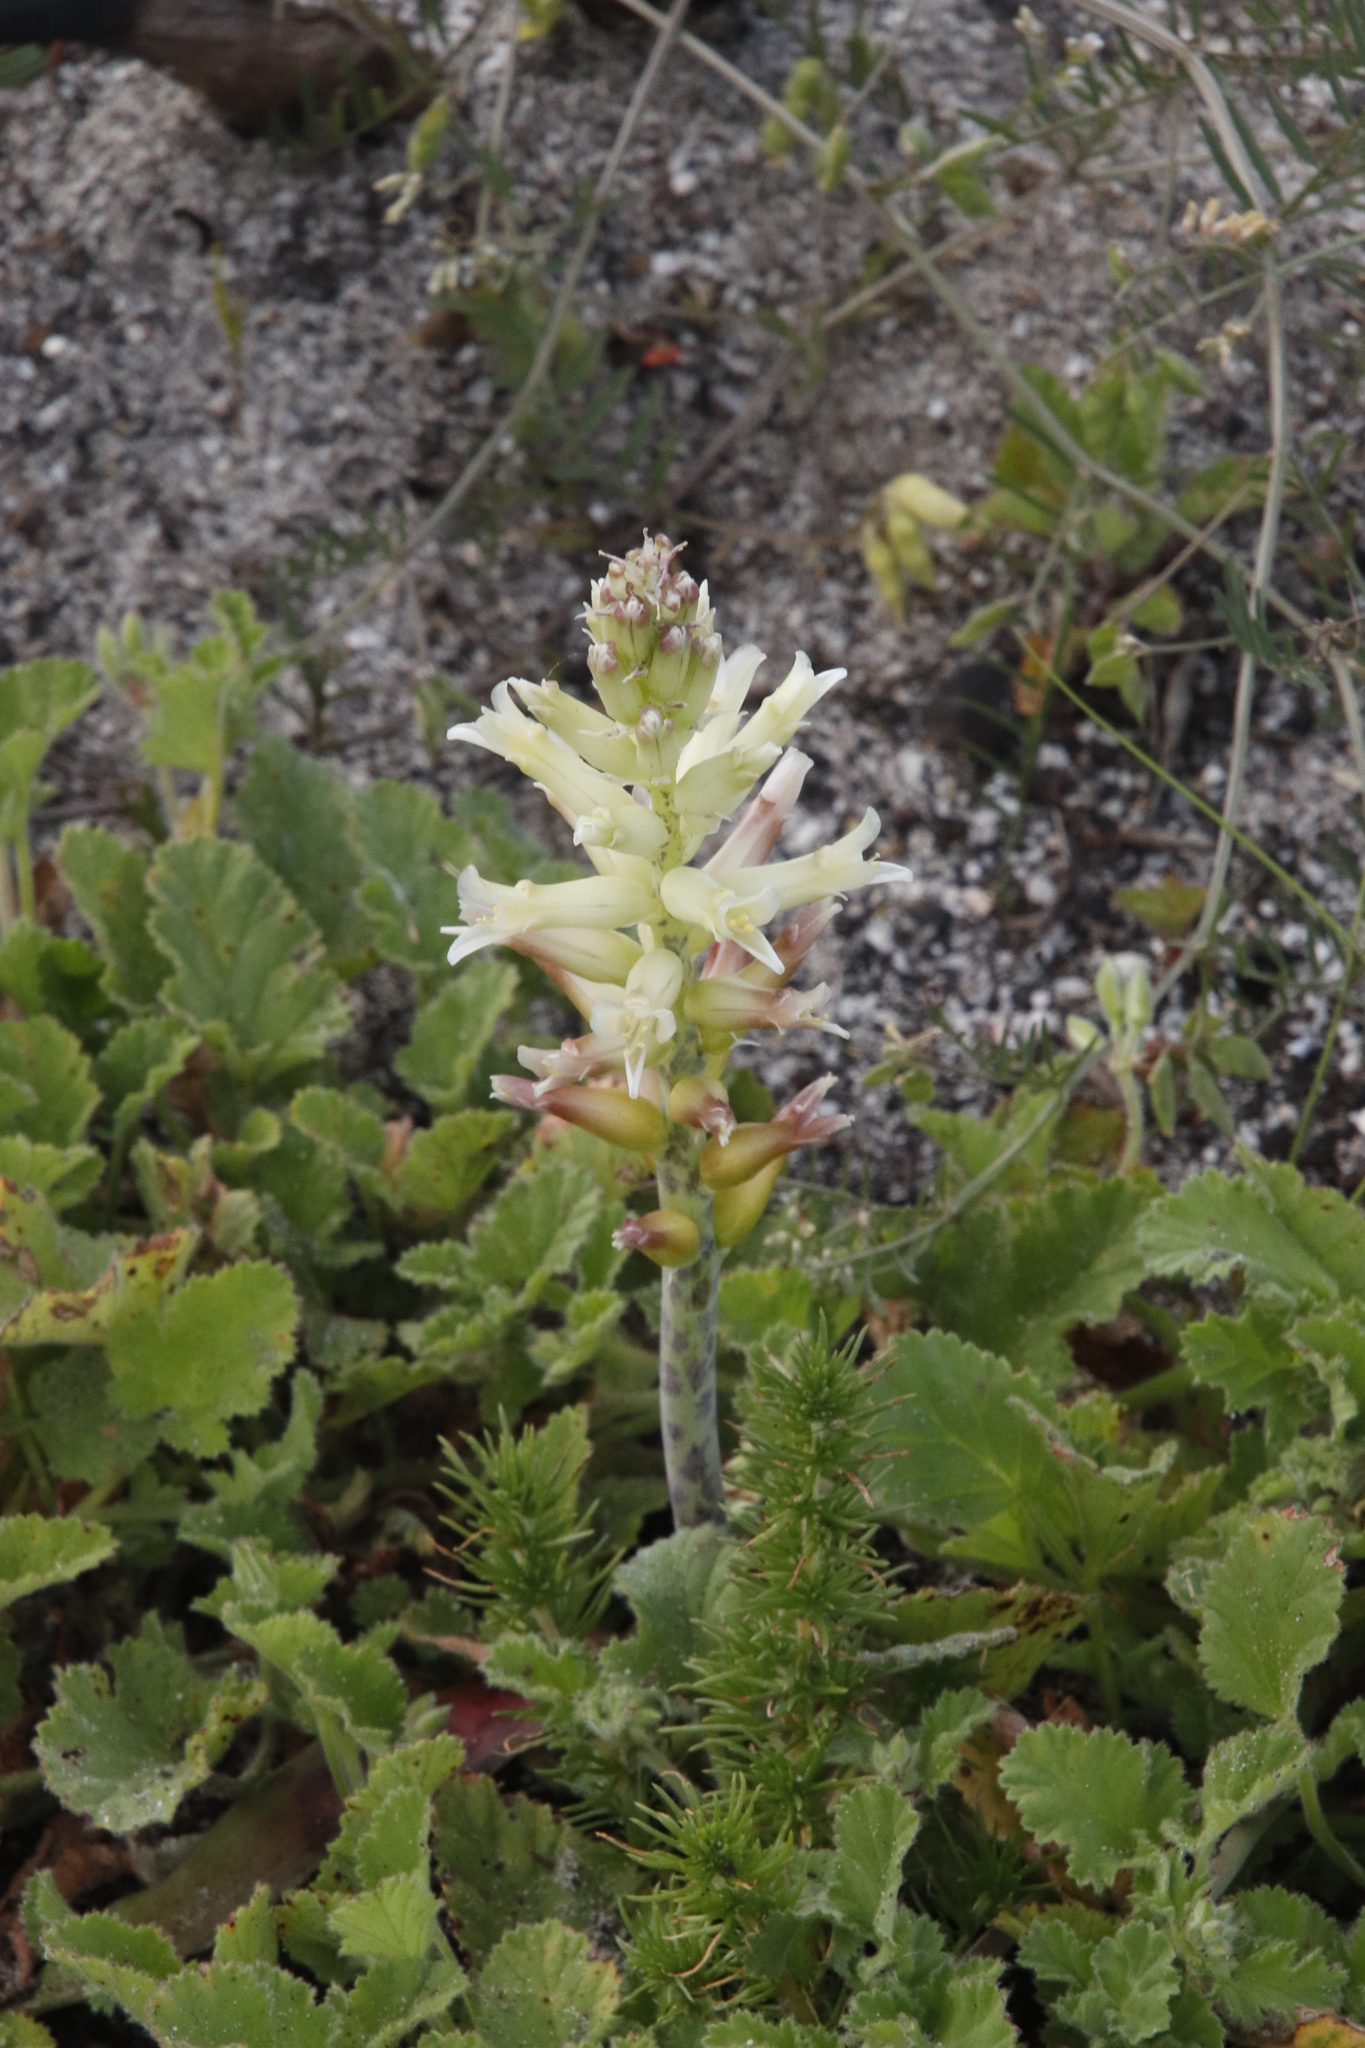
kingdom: Plantae
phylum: Tracheophyta
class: Liliopsida
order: Asparagales
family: Asparagaceae
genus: Lachenalia
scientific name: Lachenalia orchioides
